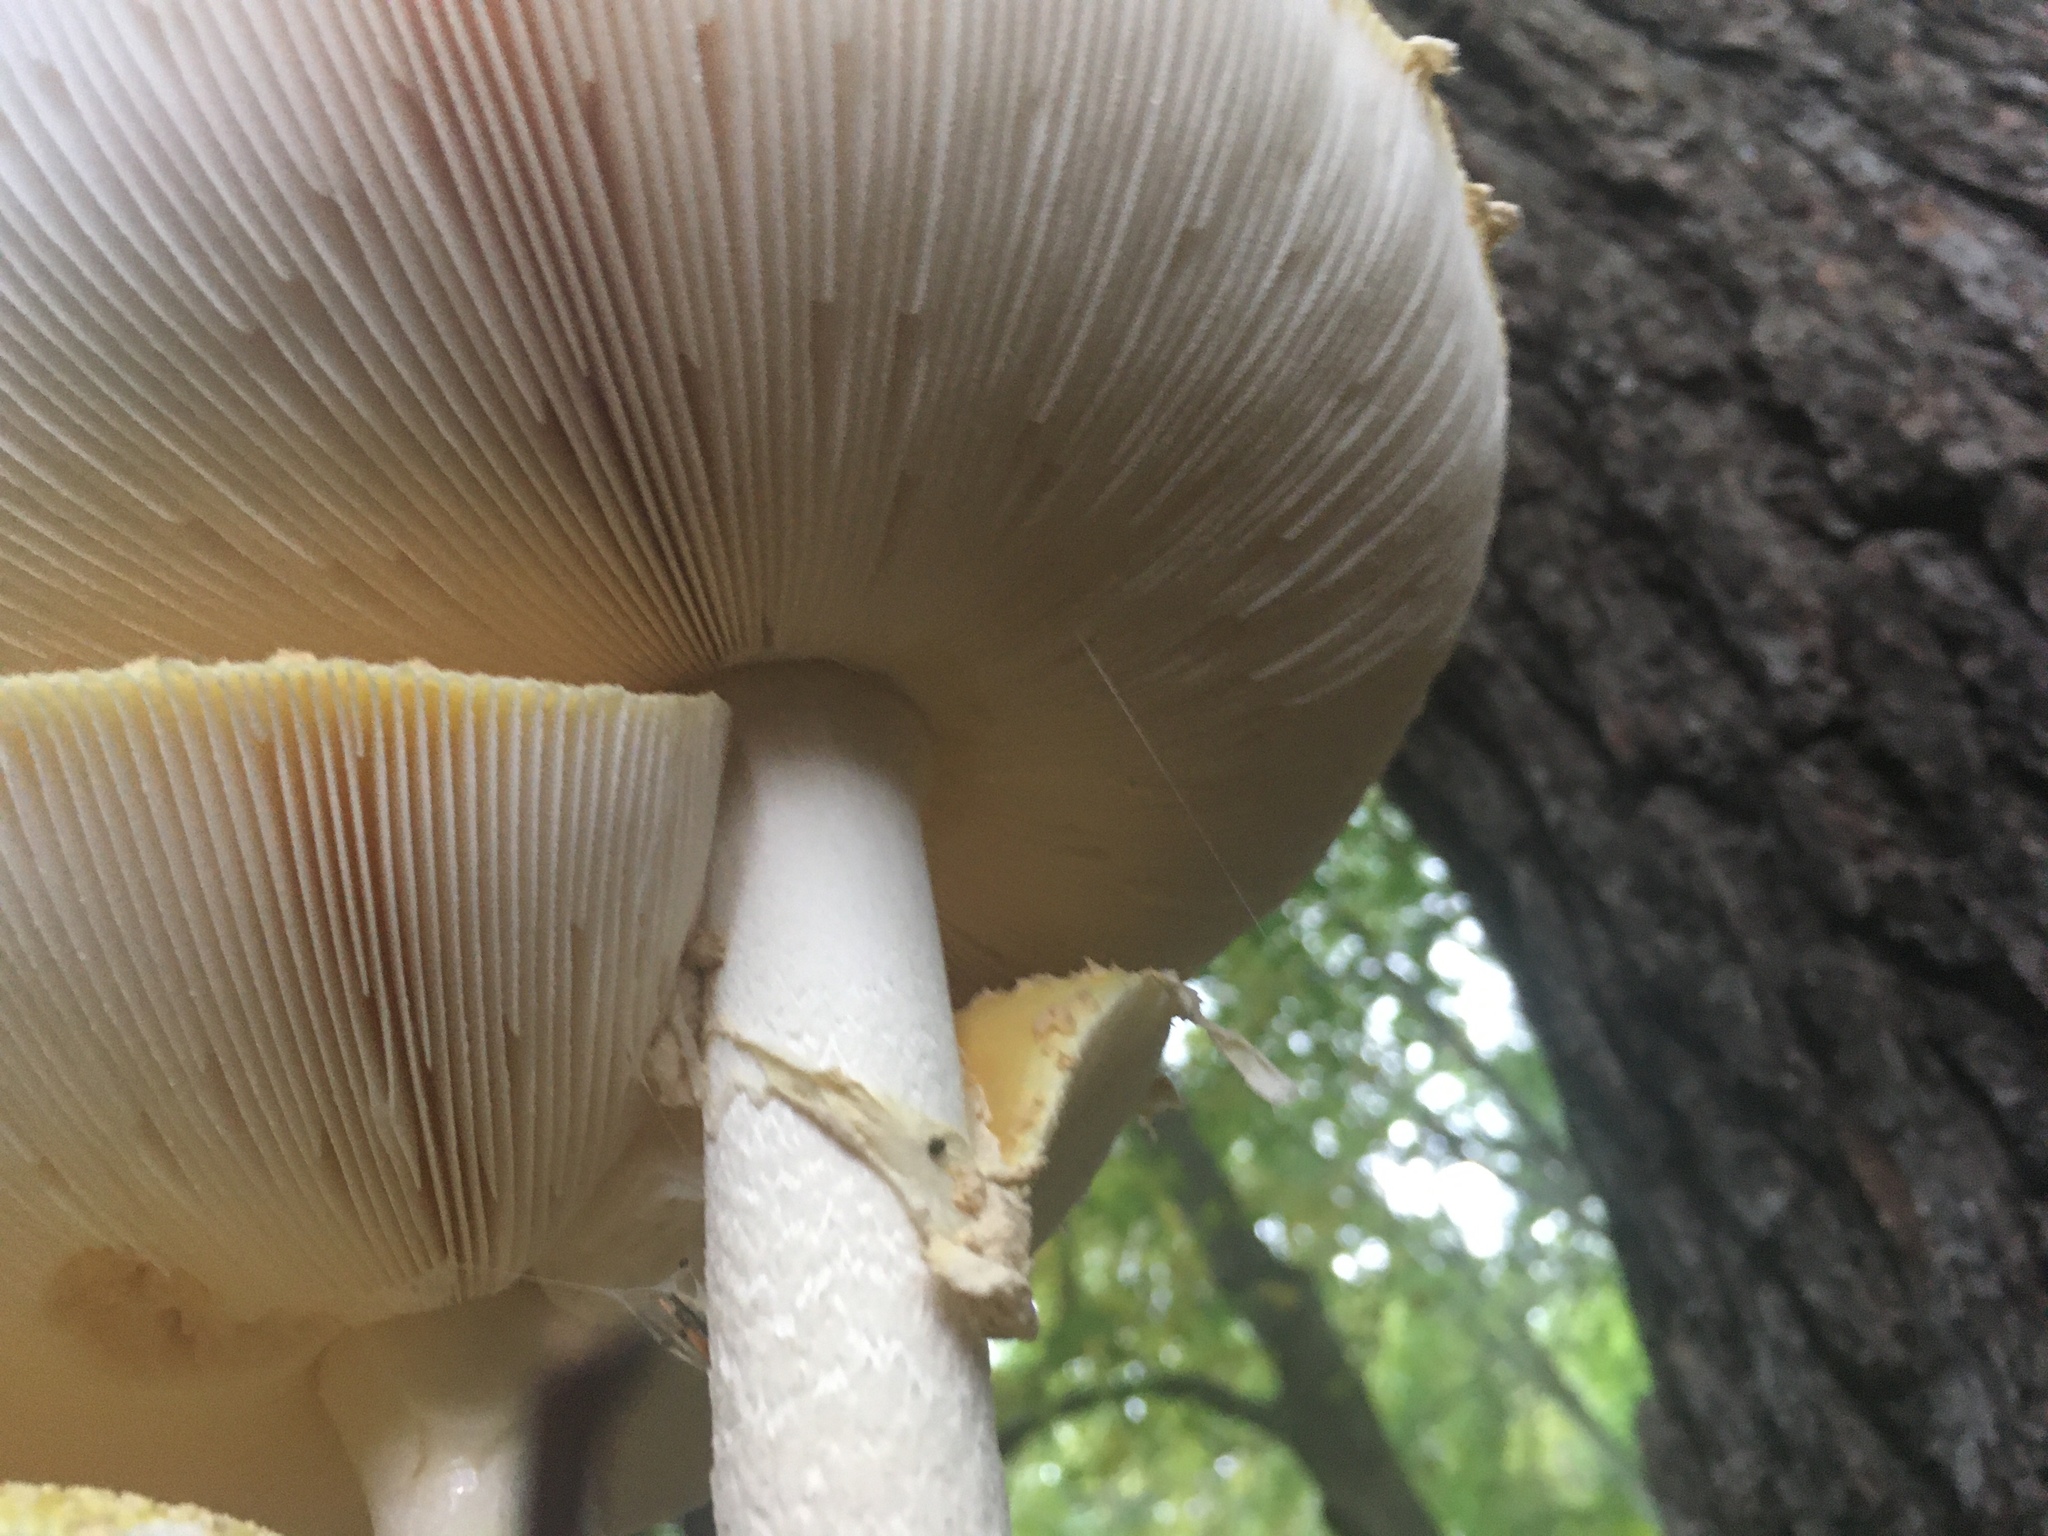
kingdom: Fungi
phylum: Basidiomycota
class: Agaricomycetes
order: Agaricales
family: Amanitaceae
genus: Amanita
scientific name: Amanita muscaria
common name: Fly agaric
